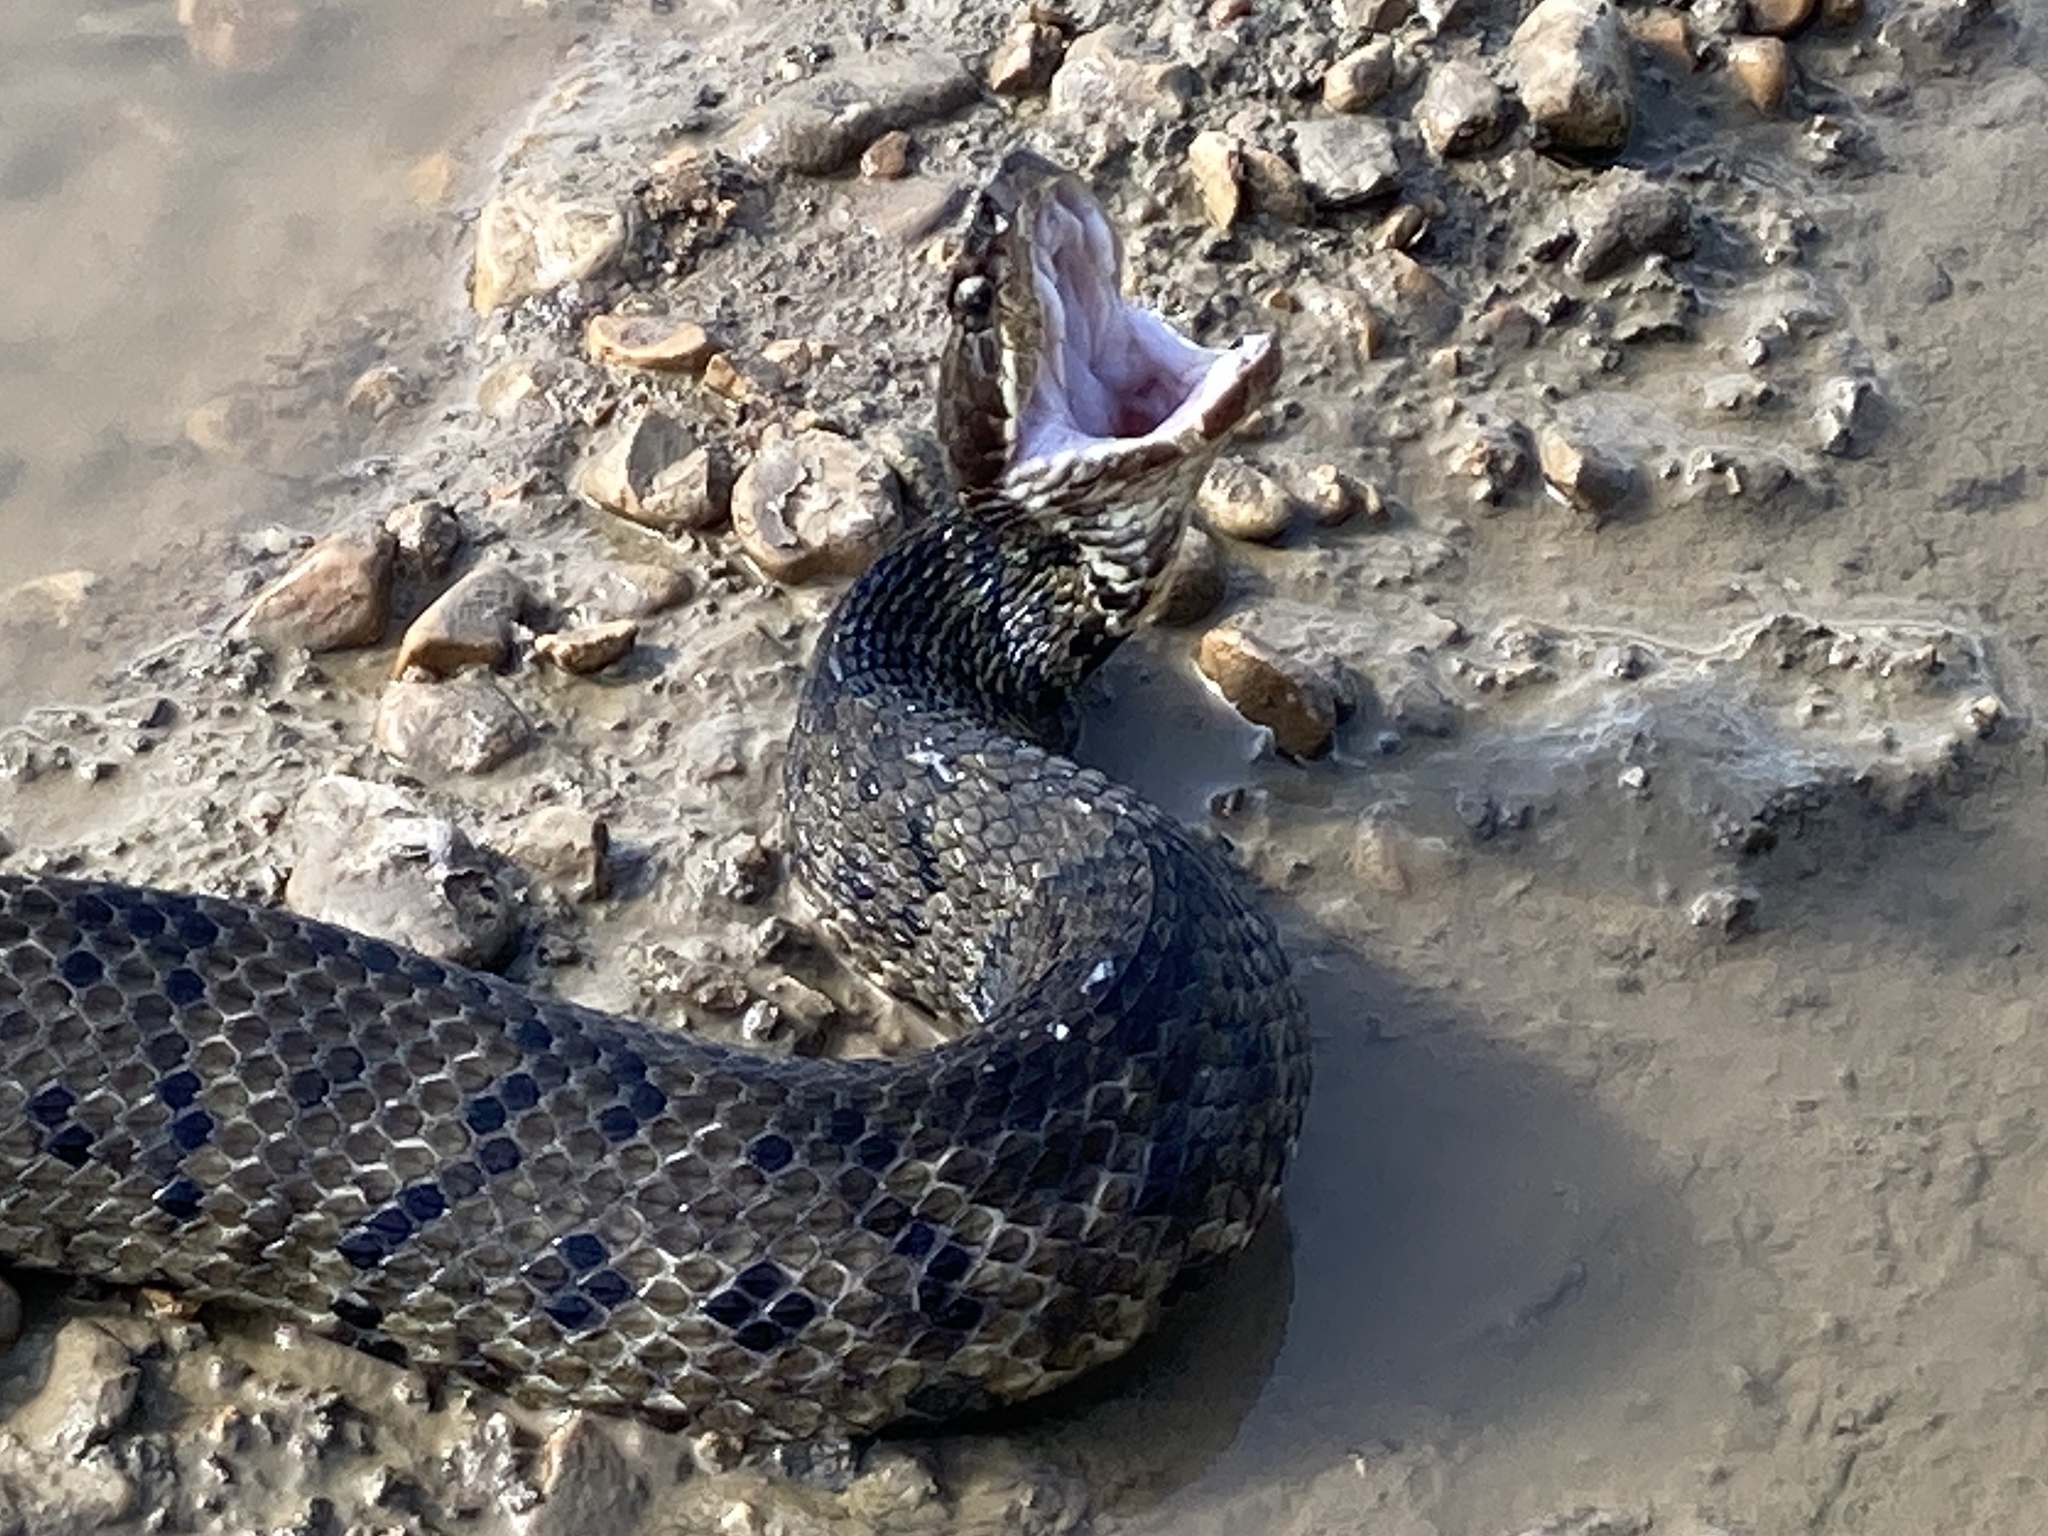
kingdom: Animalia
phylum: Chordata
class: Squamata
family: Viperidae
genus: Agkistrodon
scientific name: Agkistrodon piscivorus
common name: Cottonmouth
